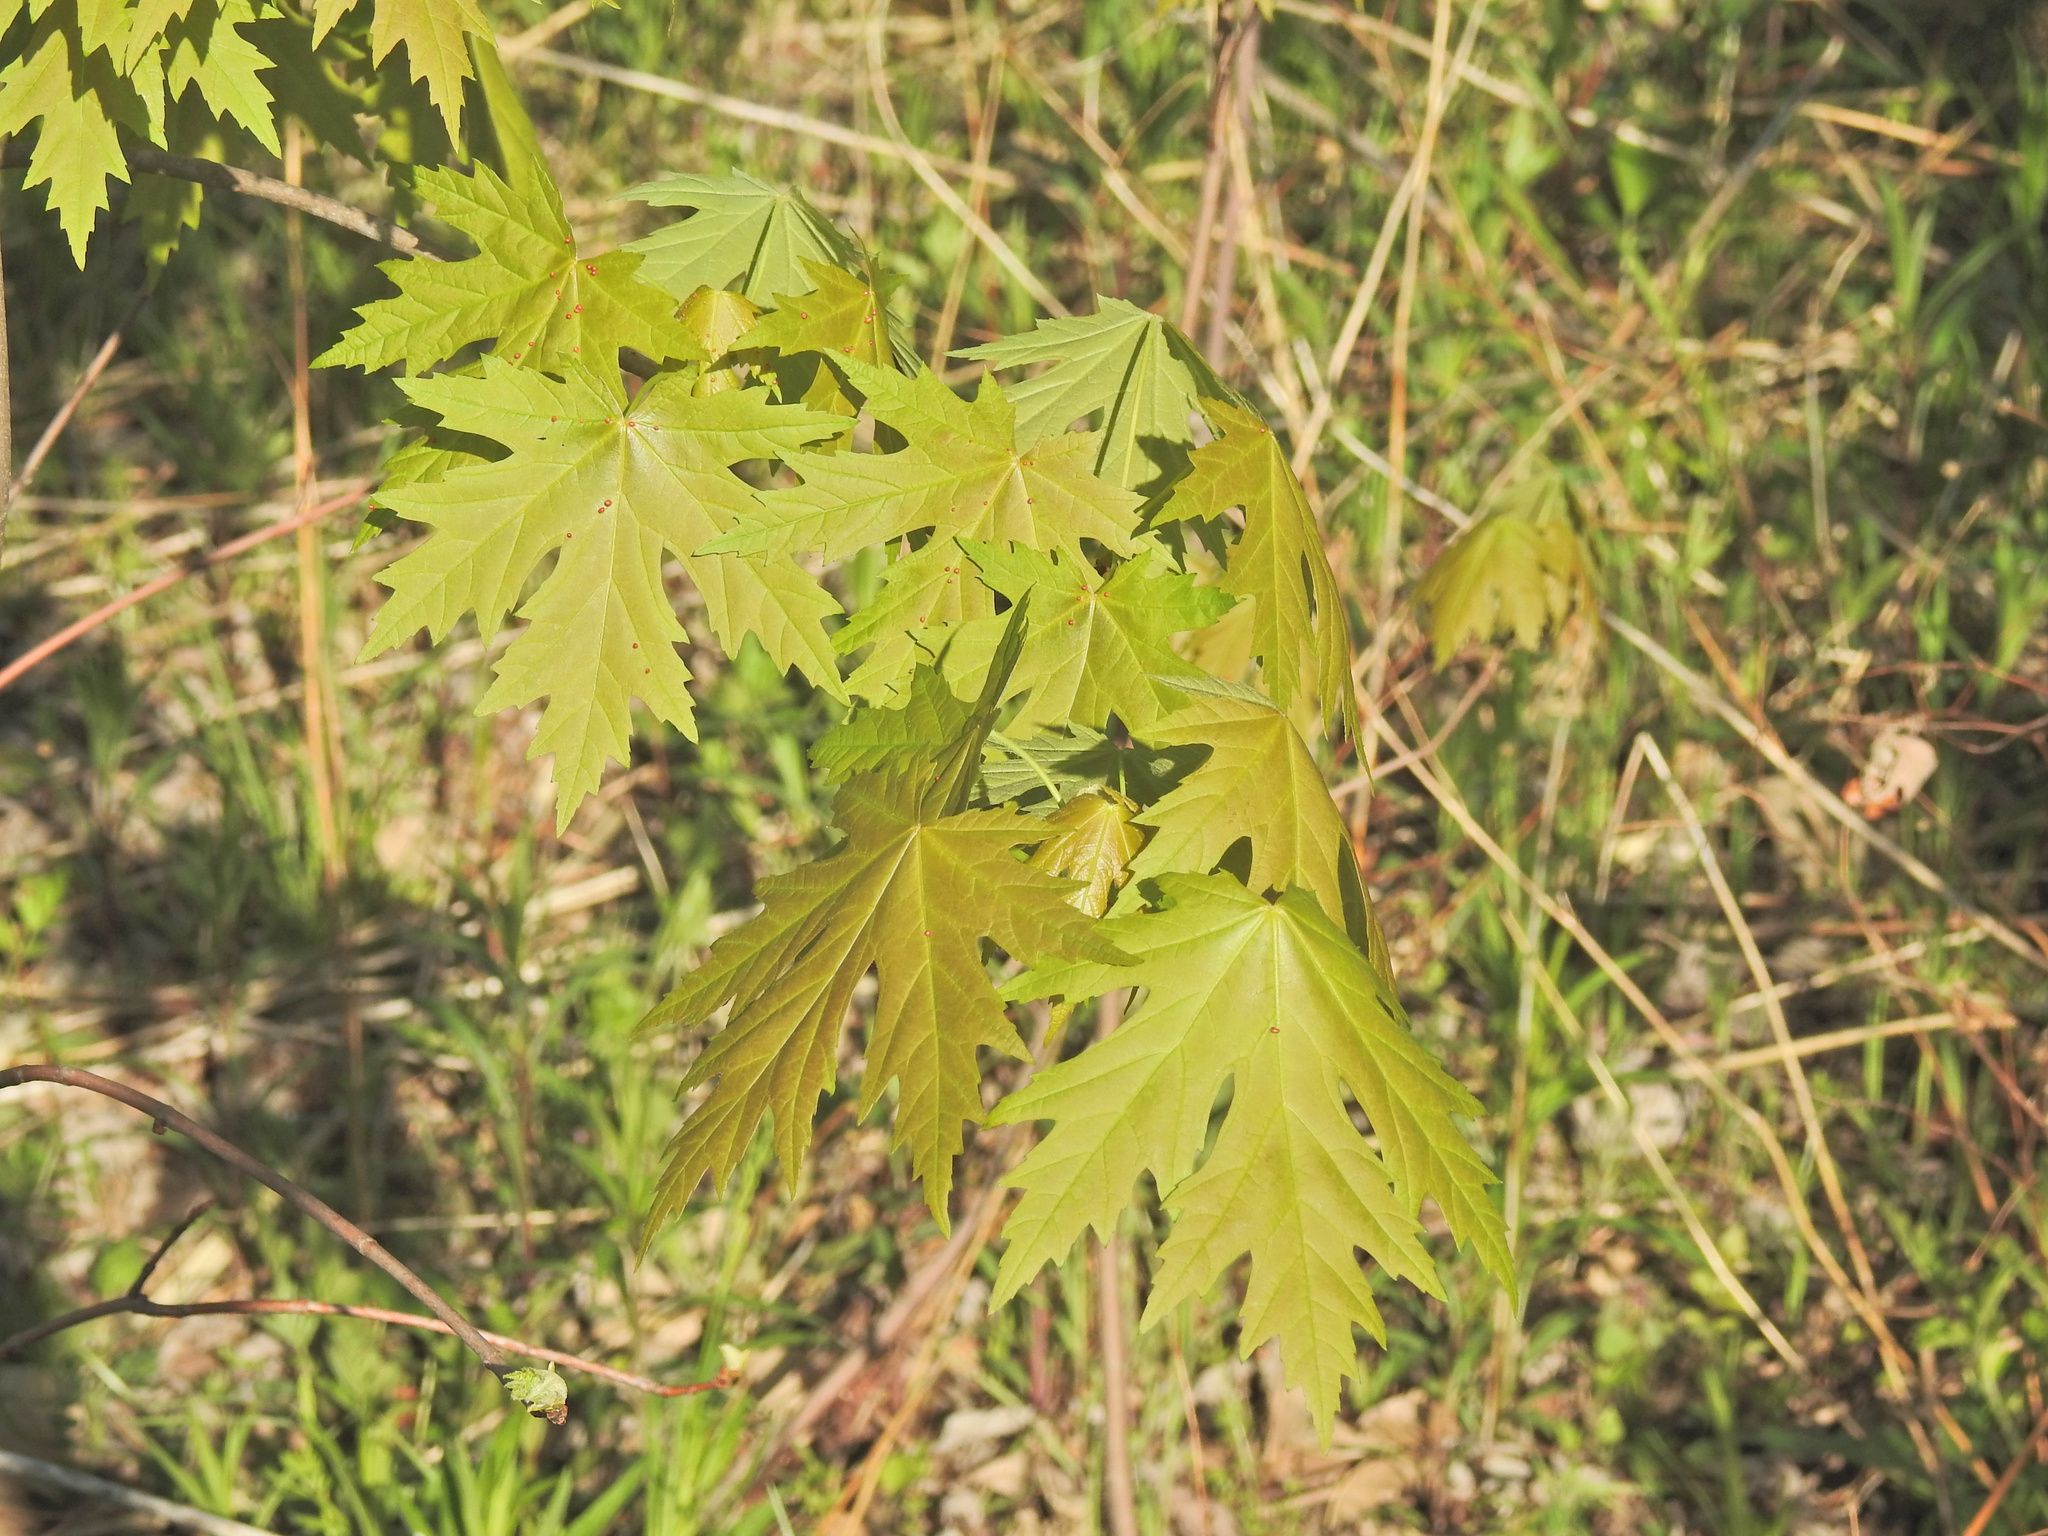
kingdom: Plantae
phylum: Tracheophyta
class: Magnoliopsida
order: Sapindales
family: Sapindaceae
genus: Acer
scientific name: Acer saccharinum
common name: Silver maple
